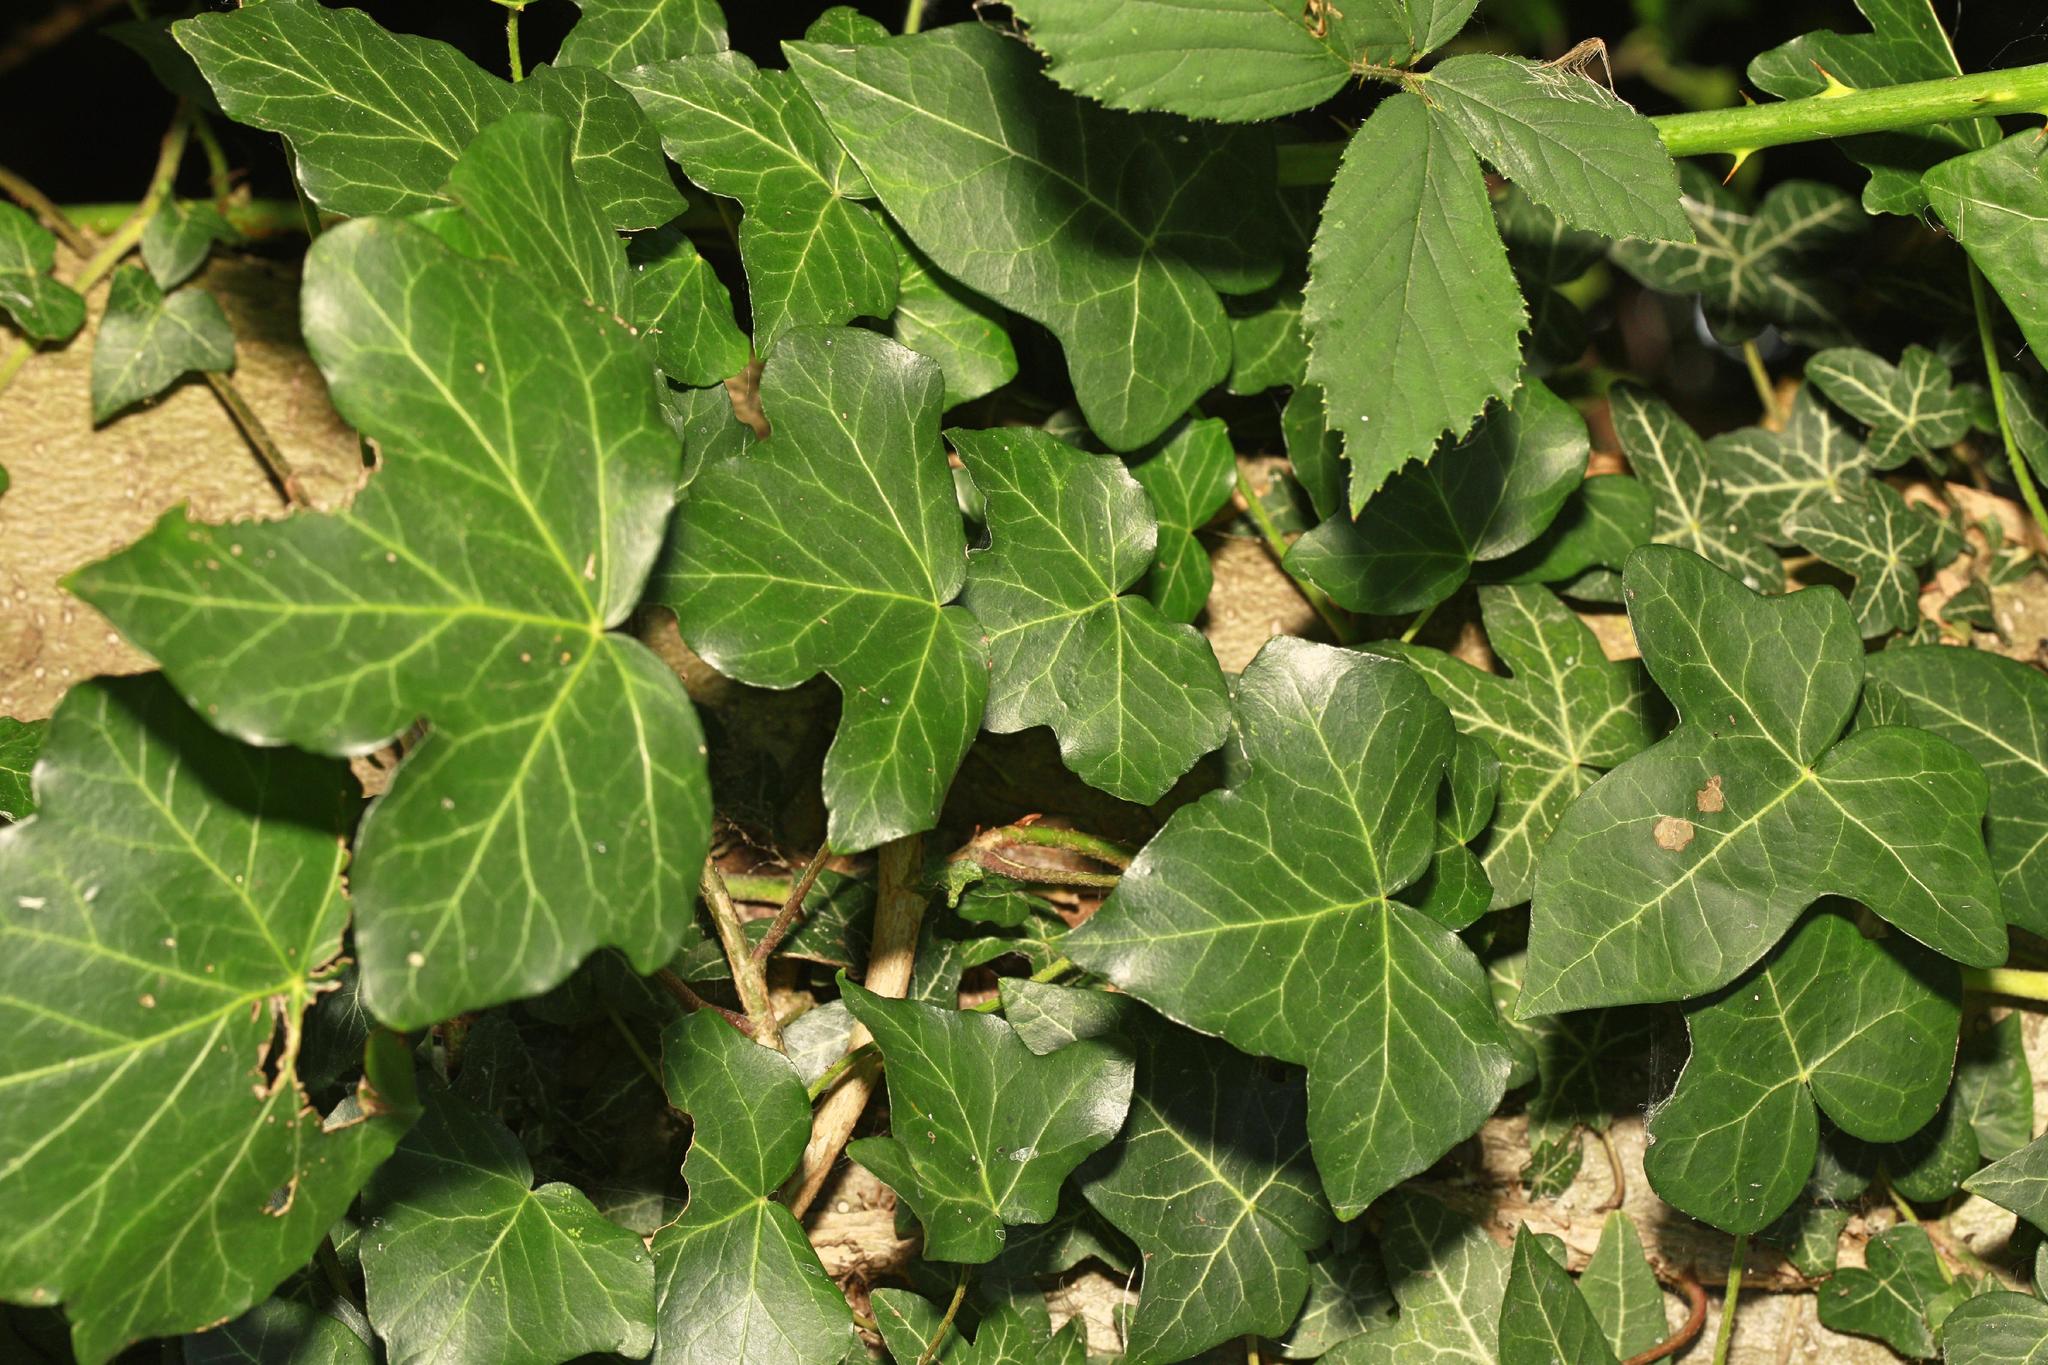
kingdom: Plantae
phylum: Tracheophyta
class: Magnoliopsida
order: Apiales
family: Araliaceae
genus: Hedera
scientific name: Hedera helix
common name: Ivy
